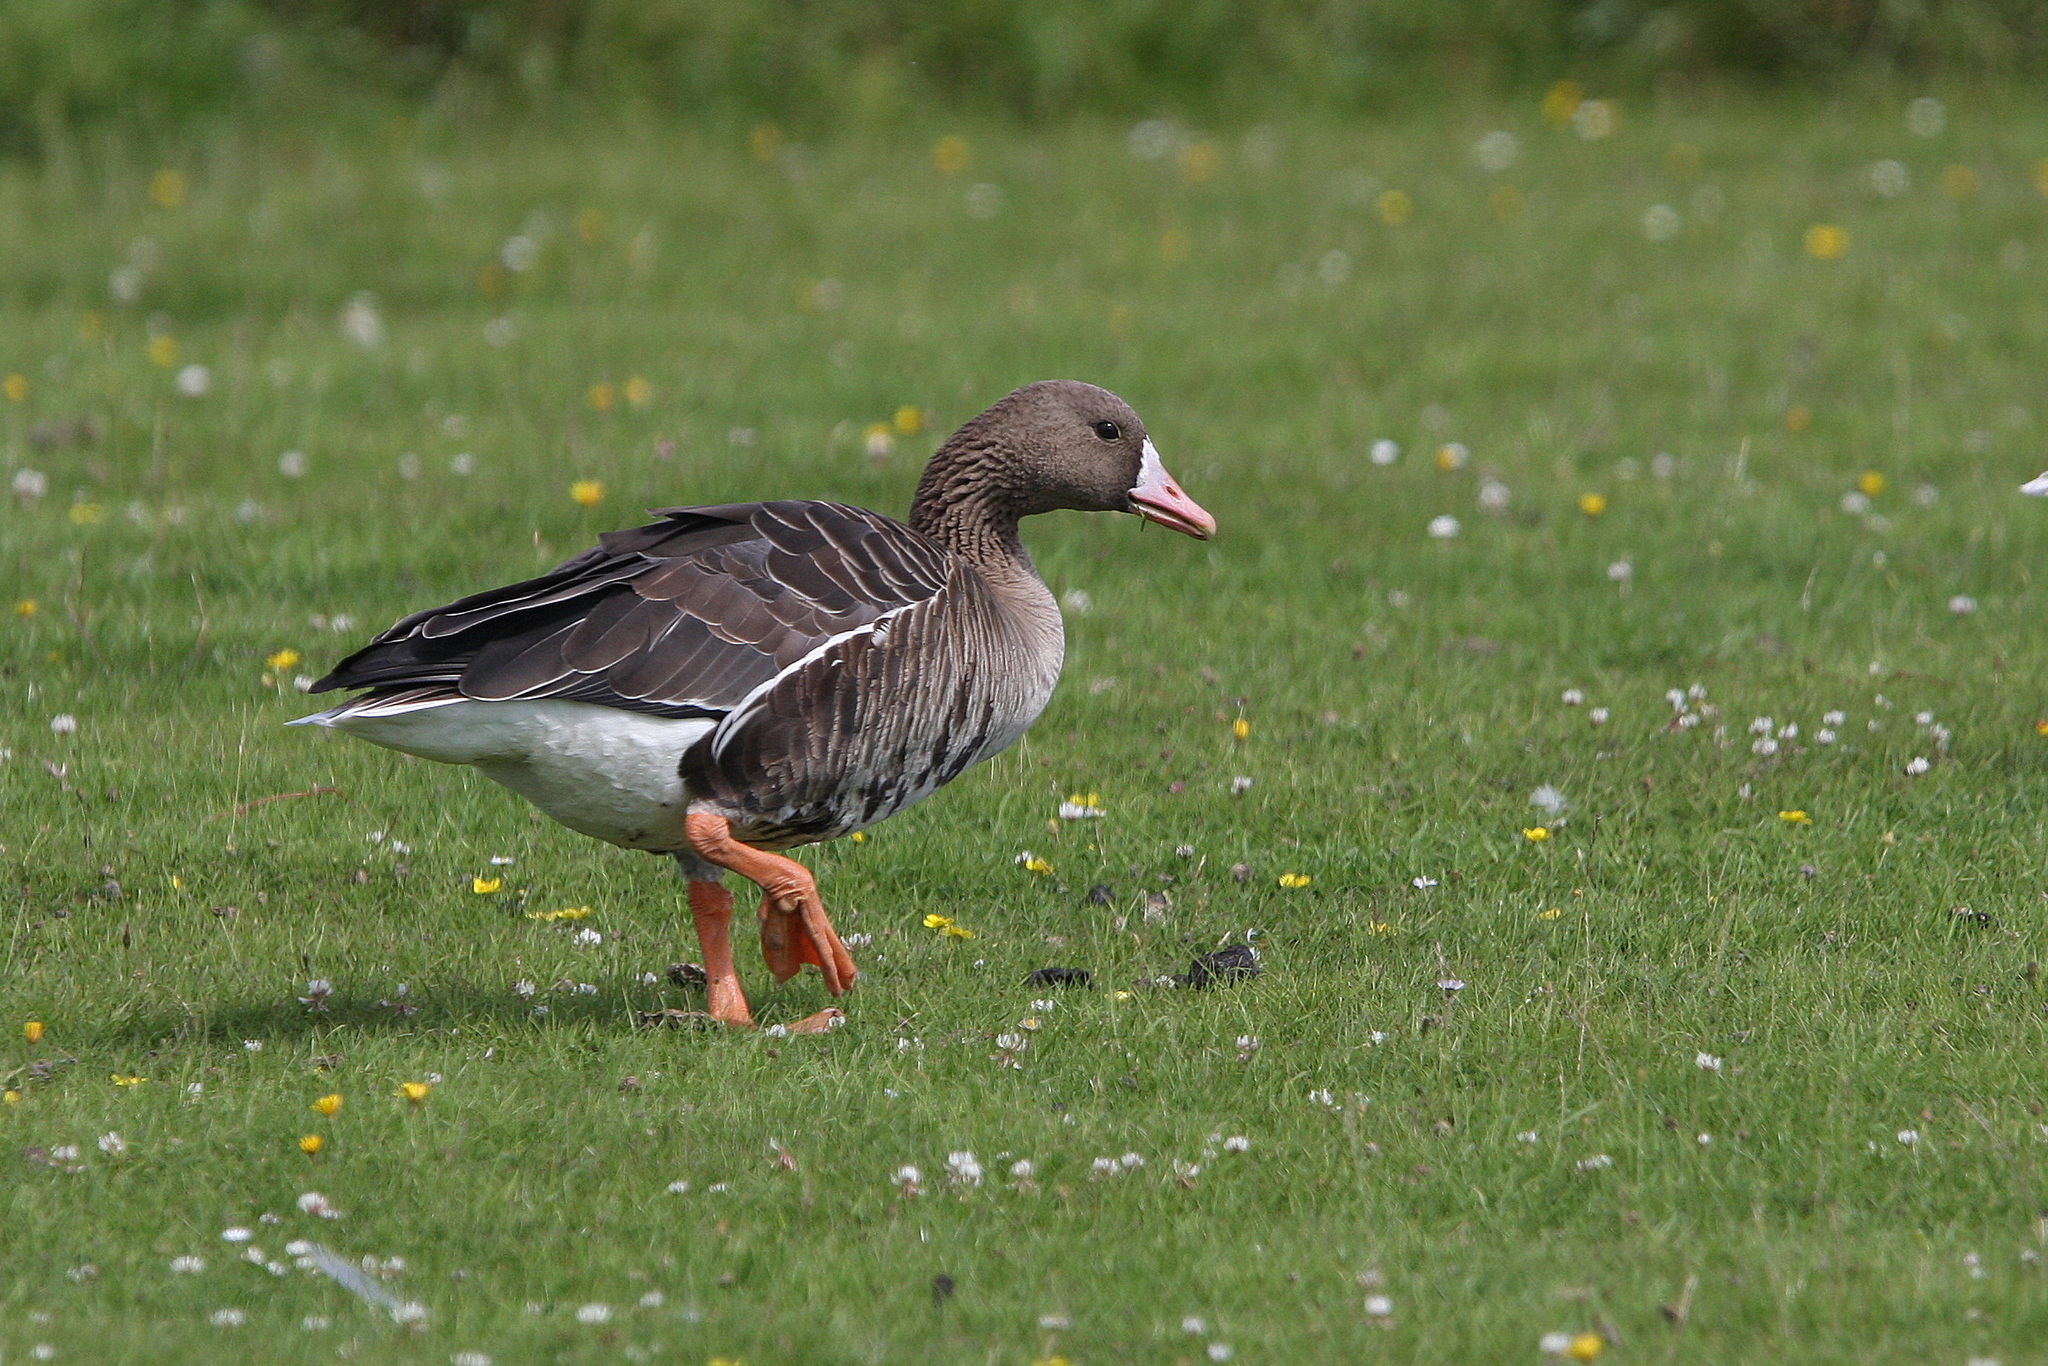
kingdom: Animalia
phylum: Chordata
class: Aves
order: Anseriformes
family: Anatidae
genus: Anser
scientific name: Anser albifrons
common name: Greater white-fronted goose
